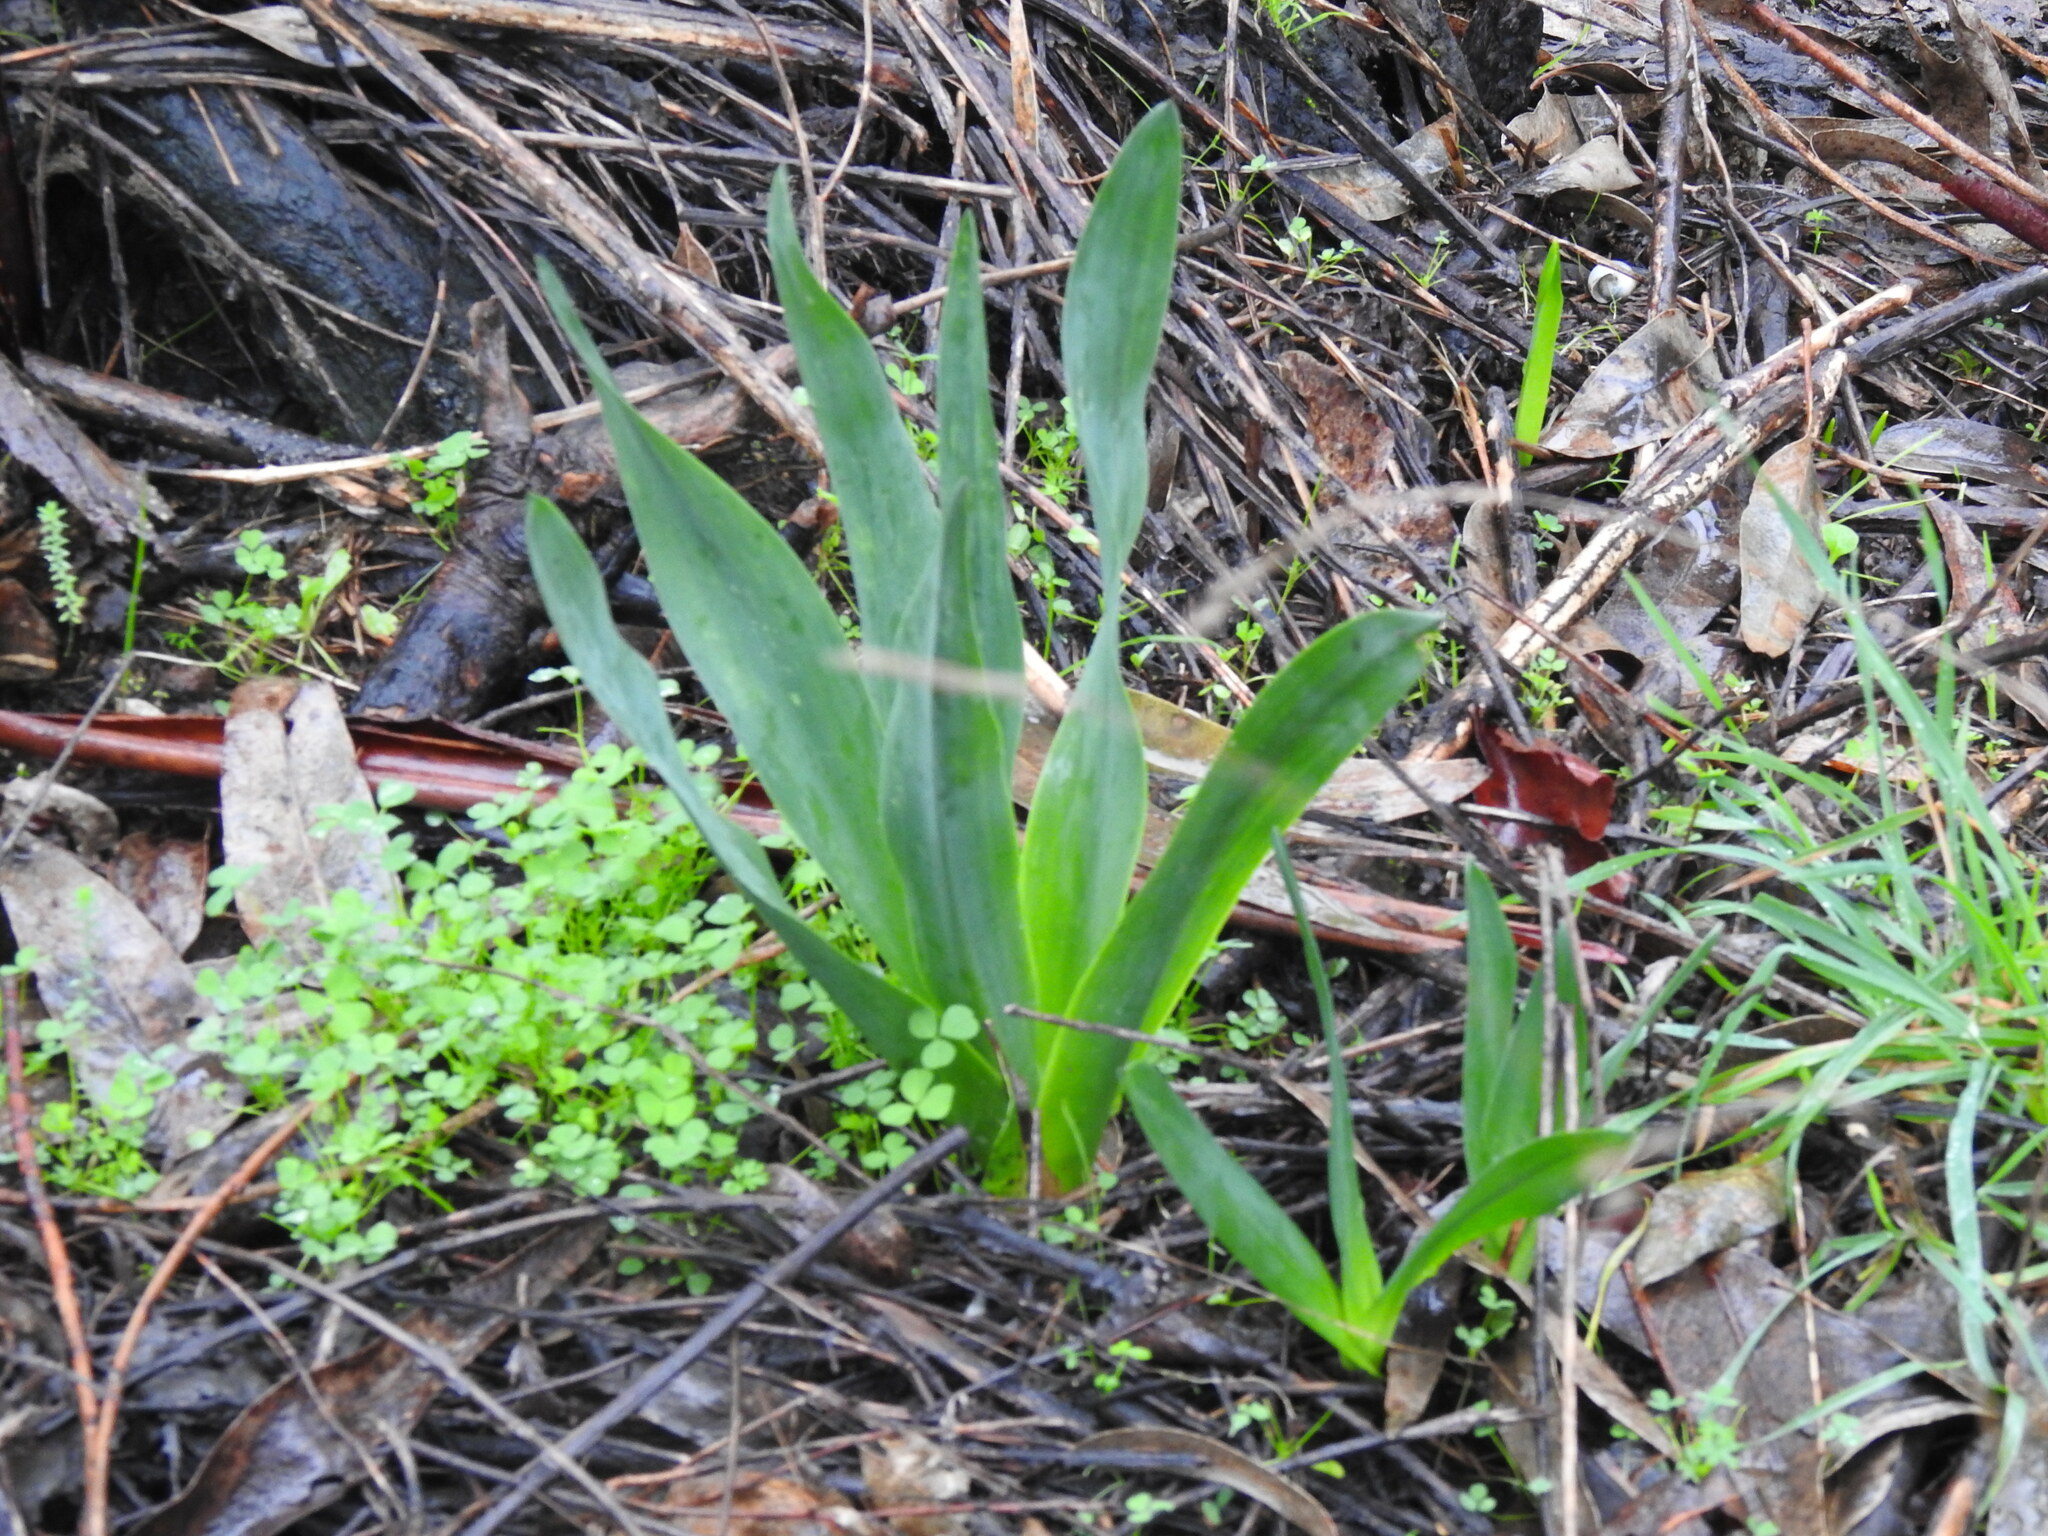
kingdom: Plantae
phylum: Tracheophyta
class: Liliopsida
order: Asparagales
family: Asparagaceae
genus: Drimia
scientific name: Drimia maritima
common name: Maritime squill
